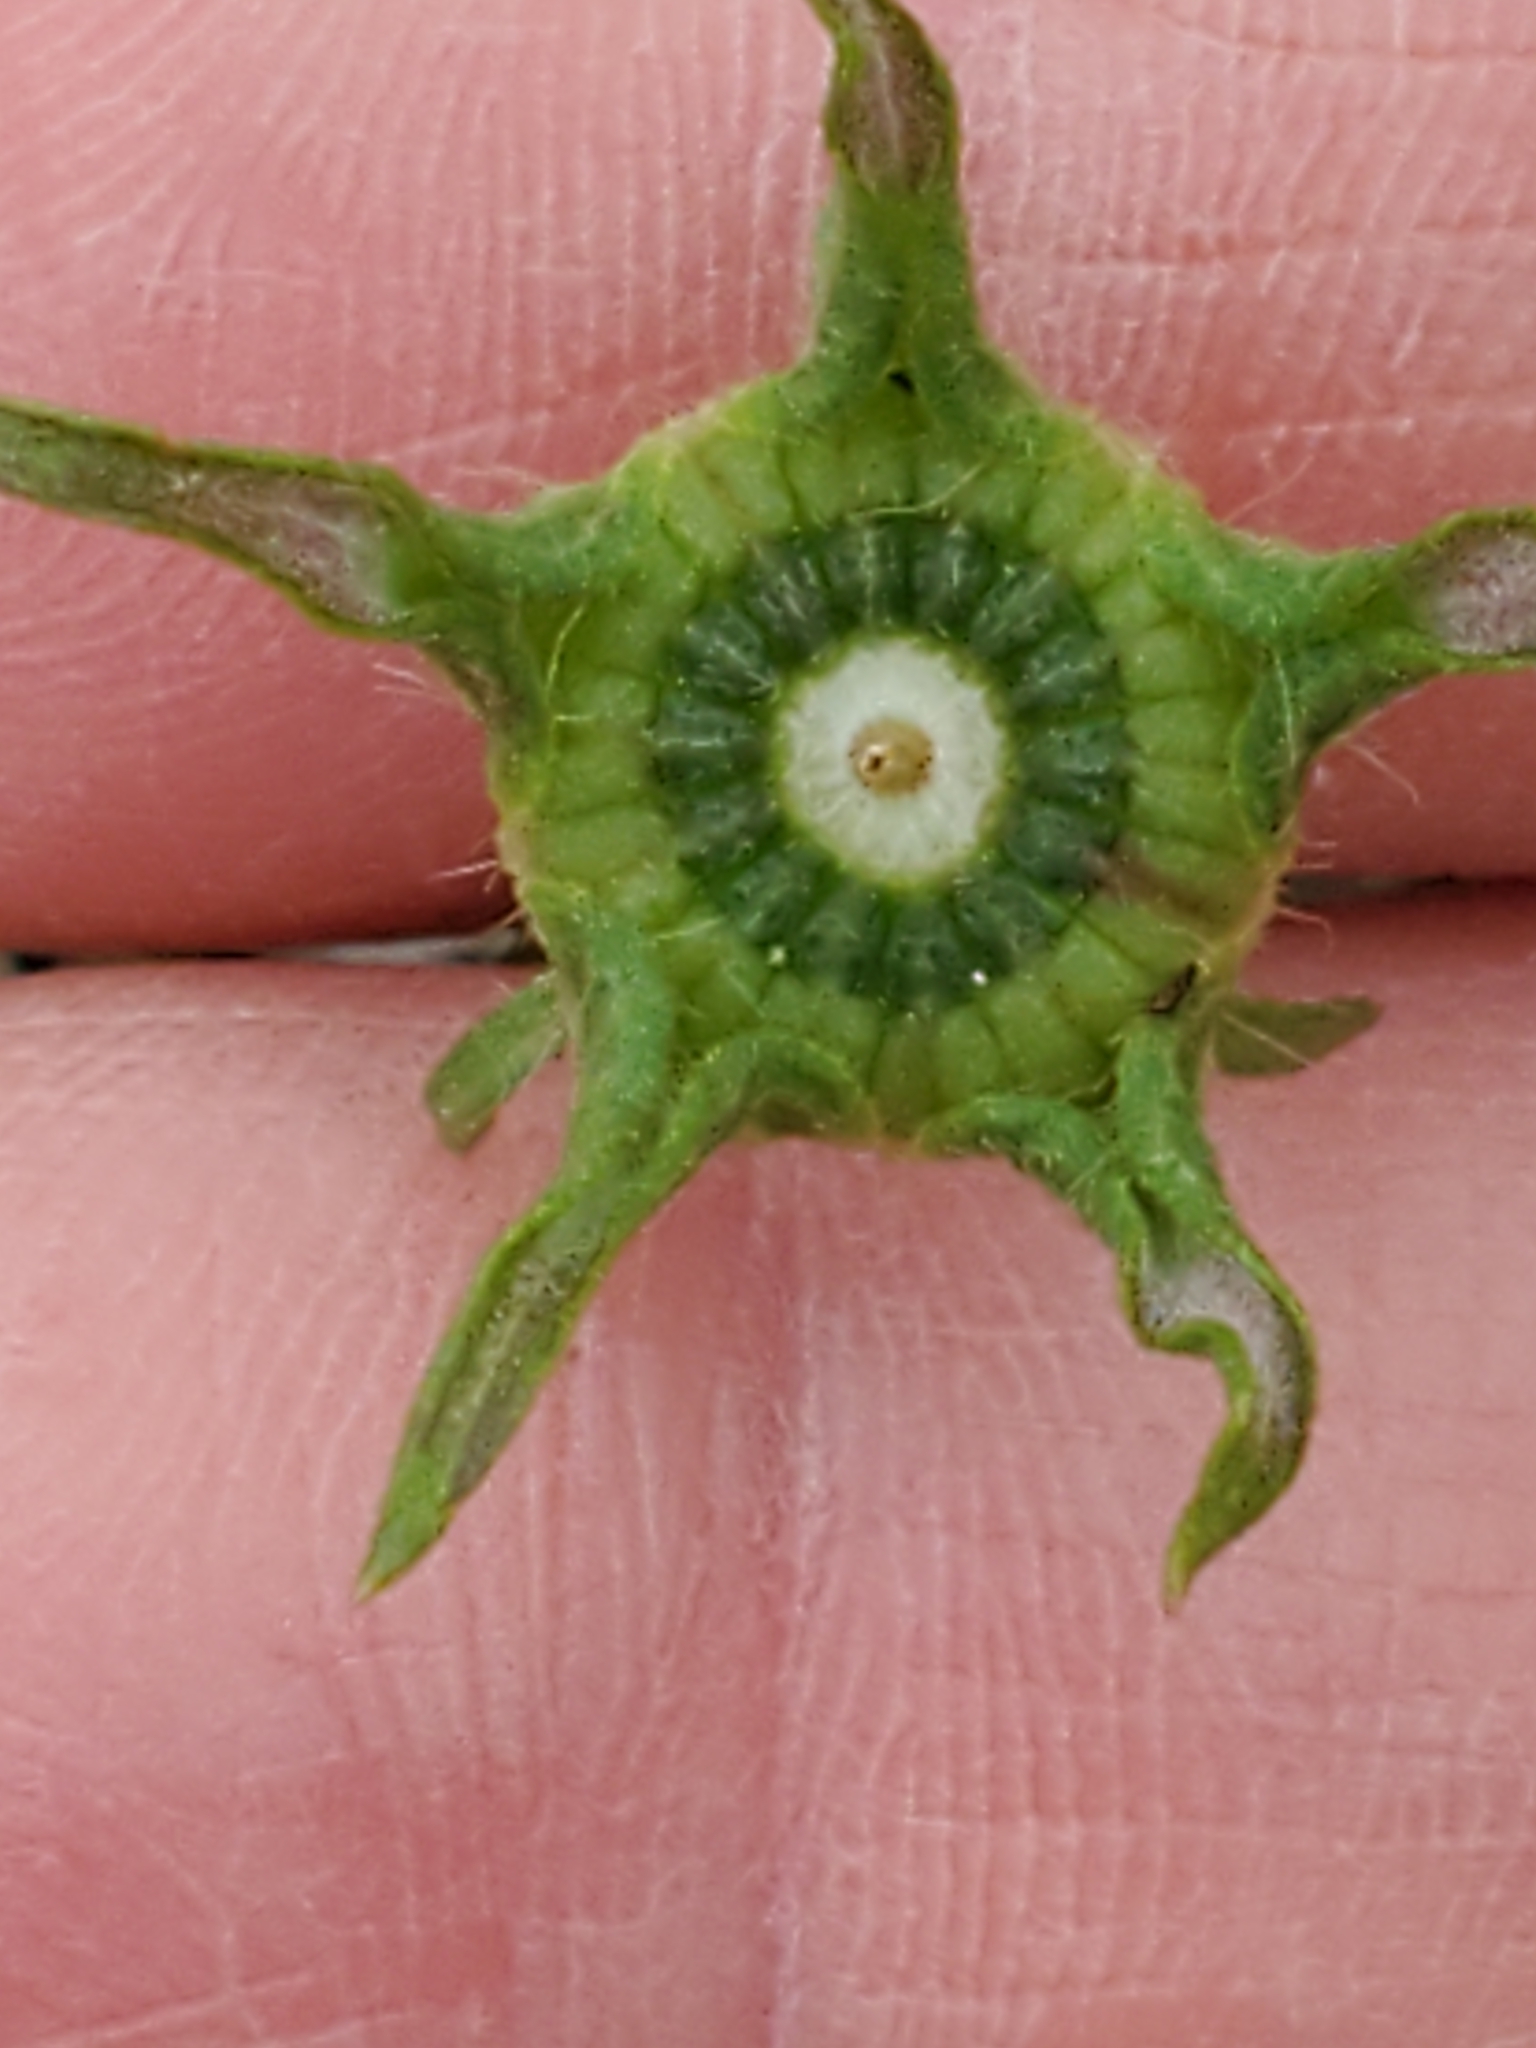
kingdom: Plantae
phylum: Tracheophyta
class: Magnoliopsida
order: Malvales
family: Malvaceae
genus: Callirhoe
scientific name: Callirhoe involucrata
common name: Purple poppy-mallow
